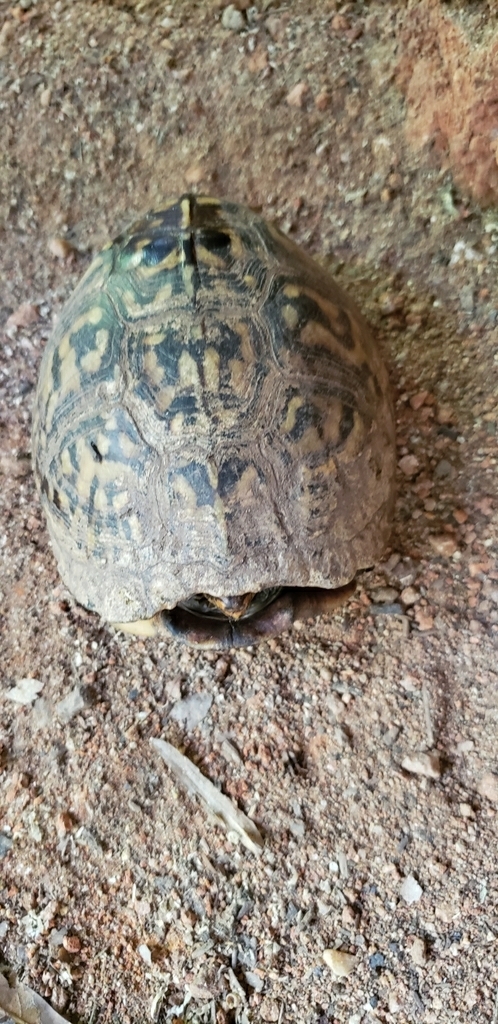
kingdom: Animalia
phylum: Chordata
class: Testudines
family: Emydidae
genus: Terrapene
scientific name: Terrapene carolina
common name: Common box turtle
